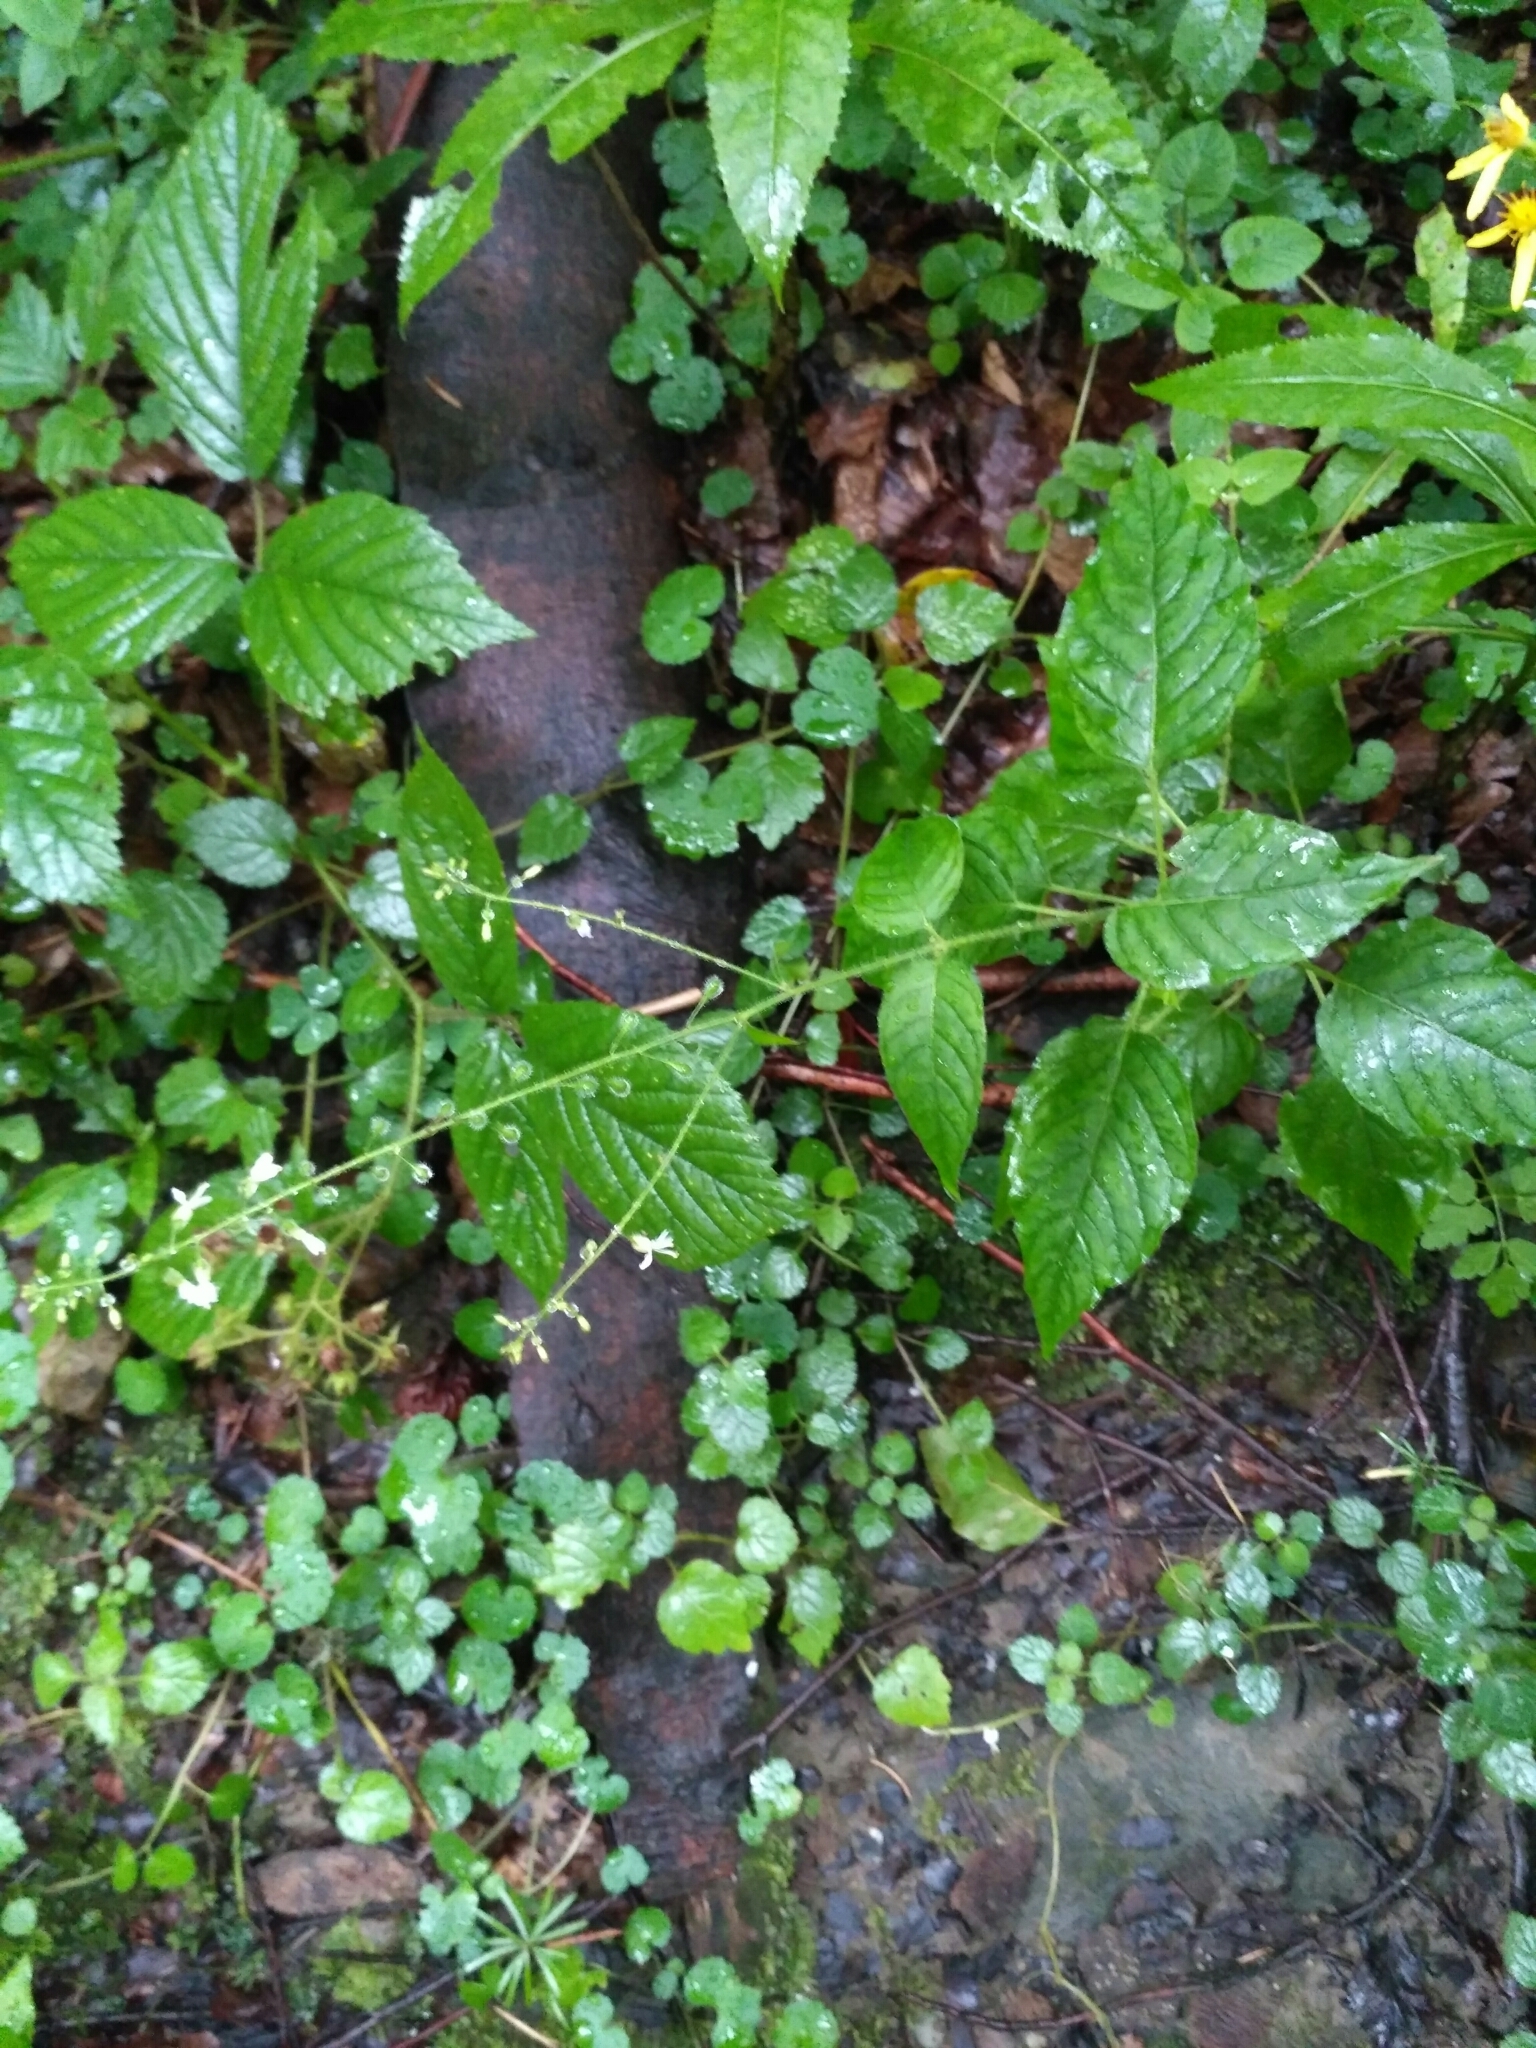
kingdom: Plantae
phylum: Tracheophyta
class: Magnoliopsida
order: Myrtales
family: Onagraceae
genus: Circaea
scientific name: Circaea lutetiana
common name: Enchanter's-nightshade
